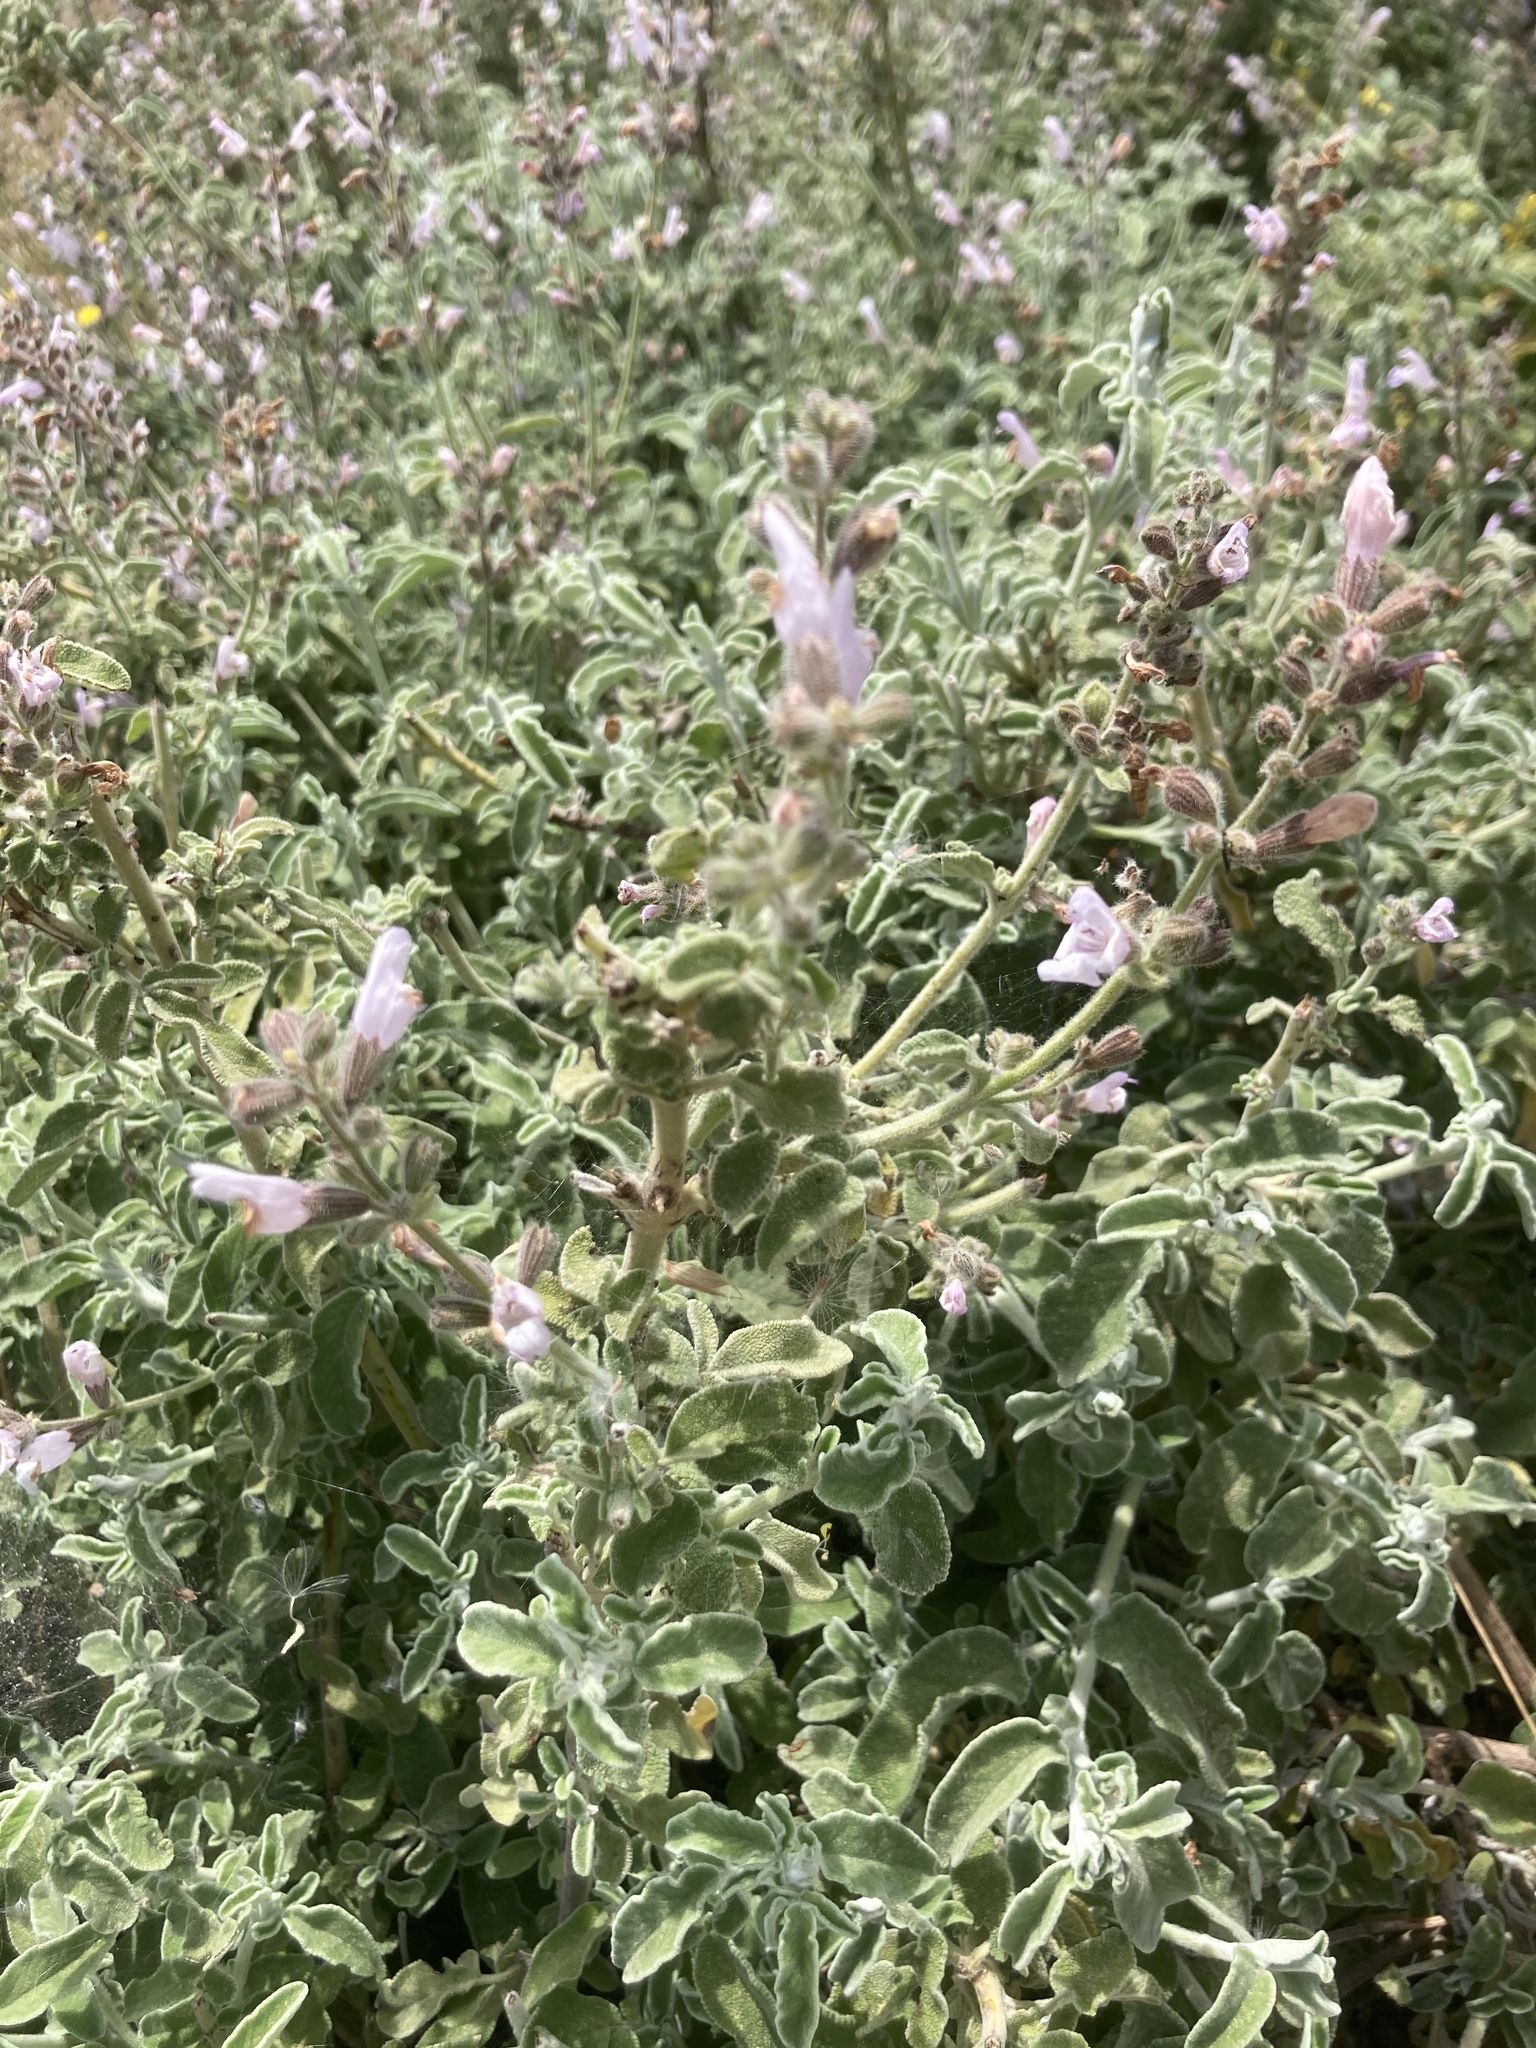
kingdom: Plantae
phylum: Tracheophyta
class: Magnoliopsida
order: Lamiales
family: Lamiaceae
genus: Salvia
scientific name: Salvia fruticosa
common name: Greek sage
